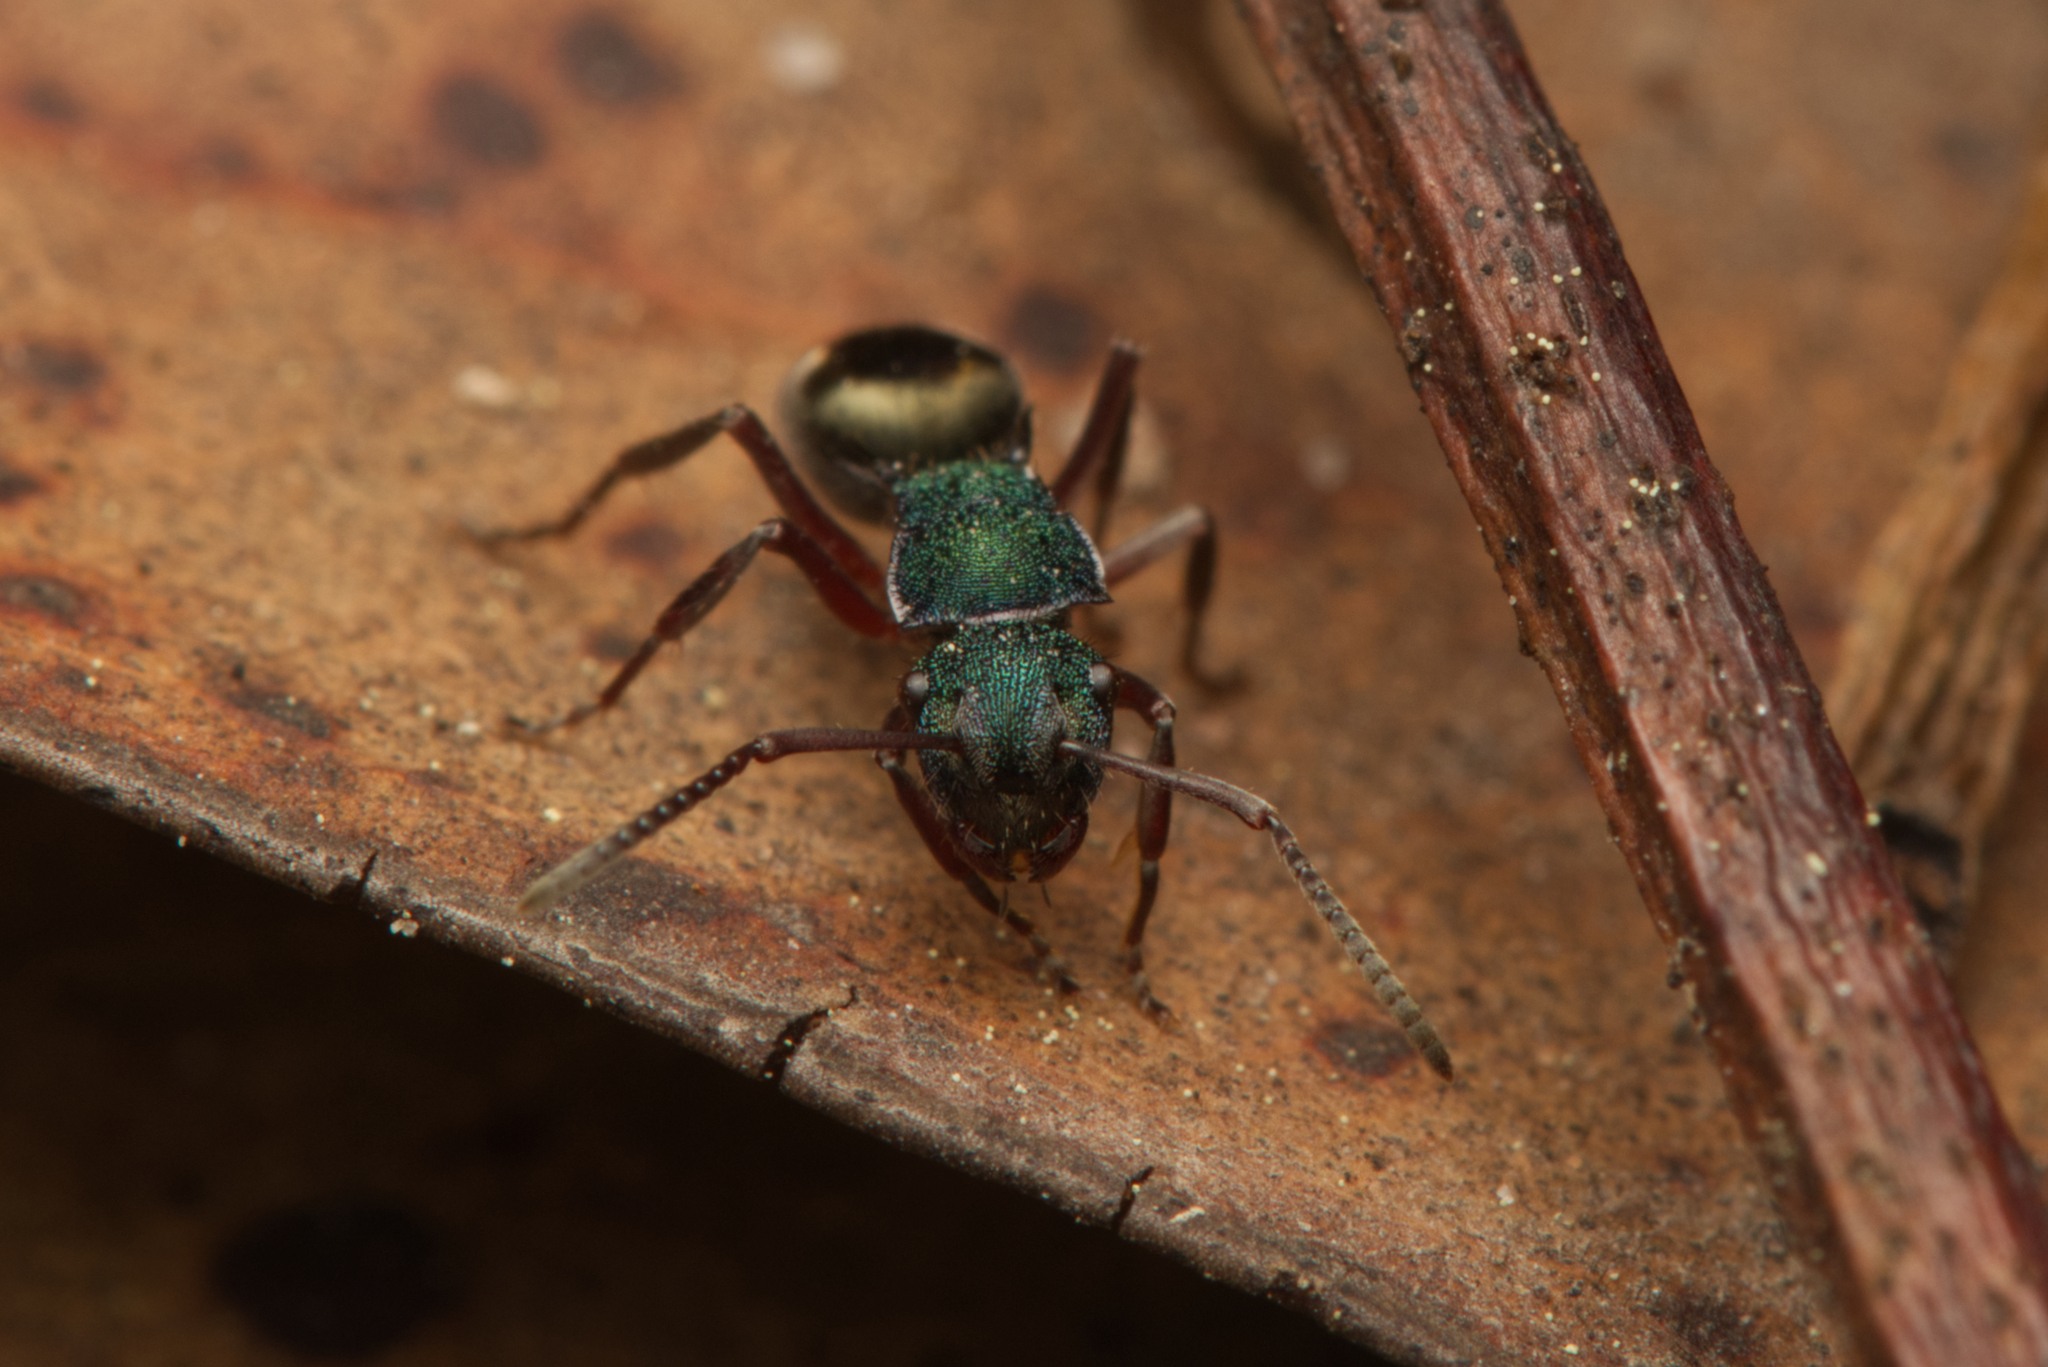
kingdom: Animalia
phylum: Arthropoda
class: Insecta
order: Hymenoptera
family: Formicidae
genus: Polyrhachis
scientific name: Polyrhachis hookeri
